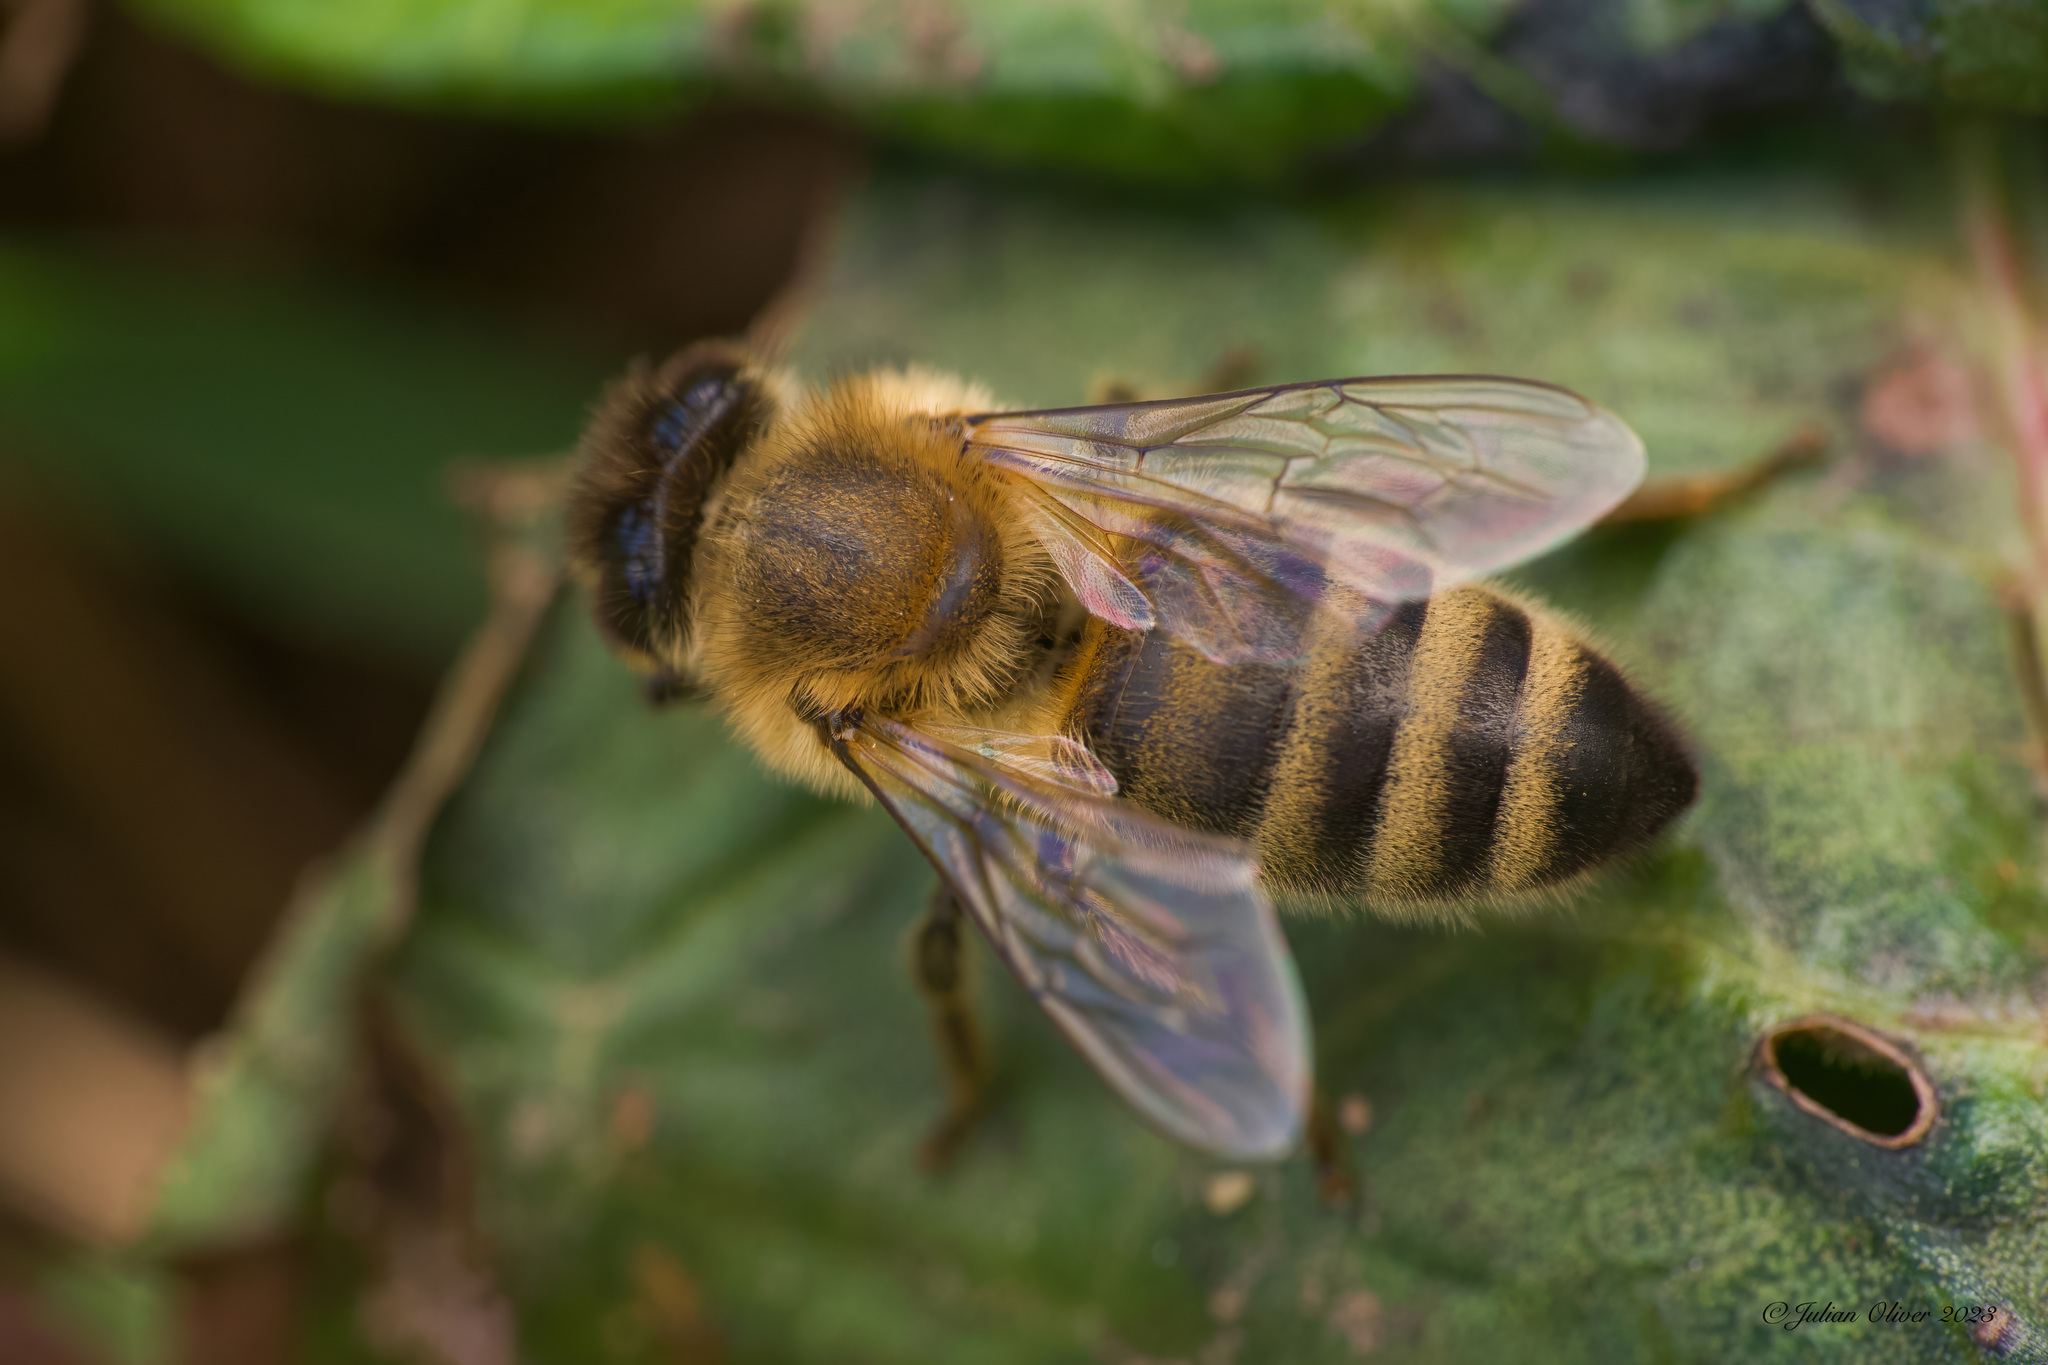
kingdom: Animalia
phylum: Arthropoda
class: Insecta
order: Hymenoptera
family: Apidae
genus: Apis
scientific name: Apis mellifera
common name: Honey bee
